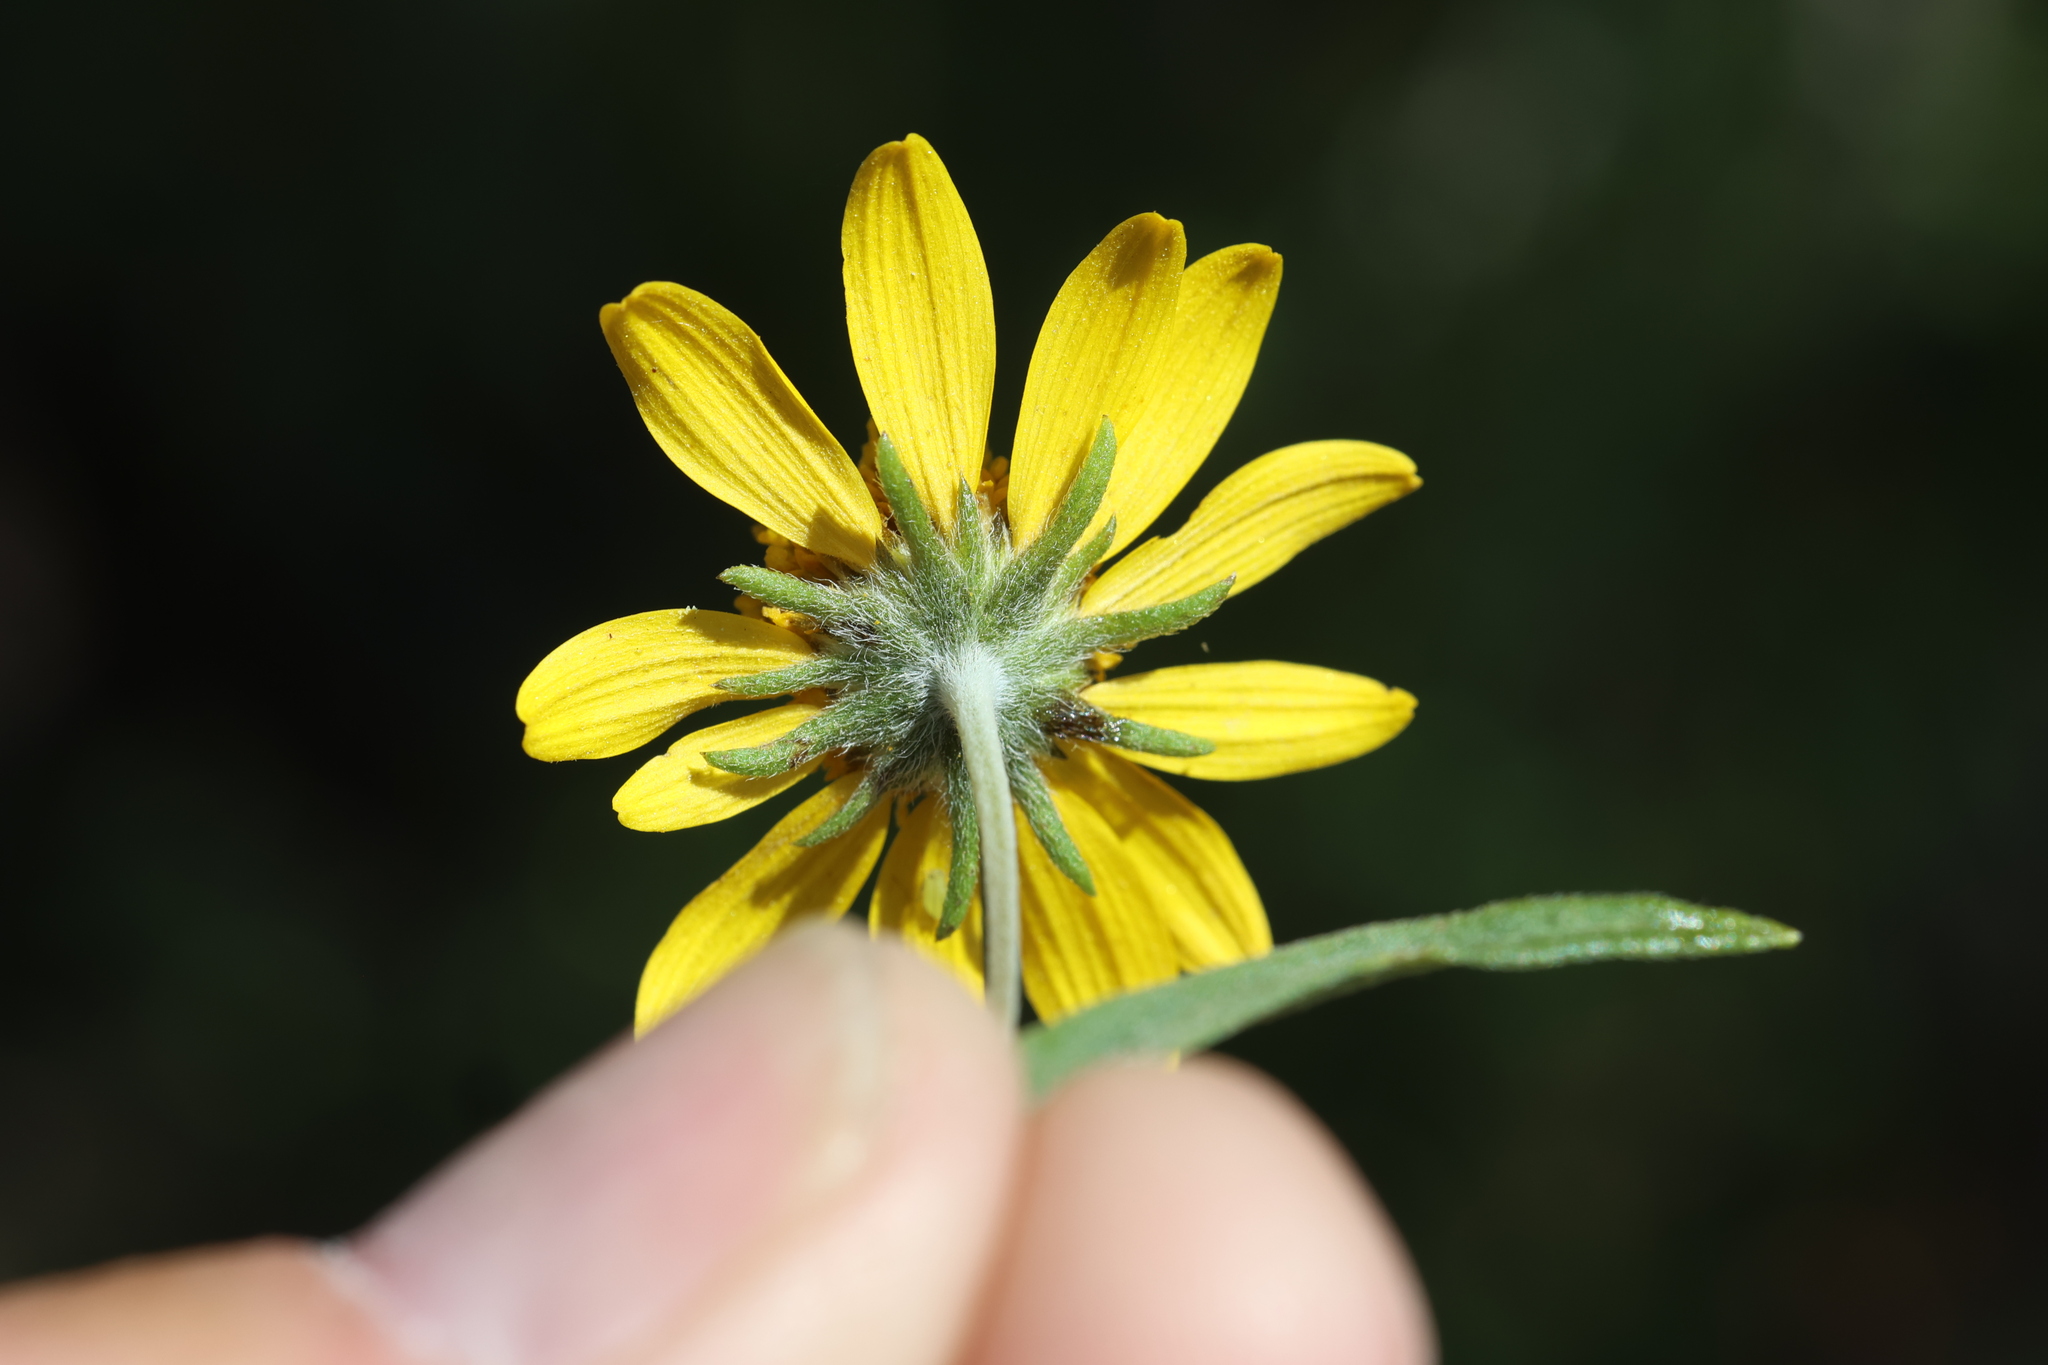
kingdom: Plantae
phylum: Tracheophyta
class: Magnoliopsida
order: Asterales
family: Asteraceae
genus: Heliomeris
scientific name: Heliomeris multiflora
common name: Showy goldeneye
